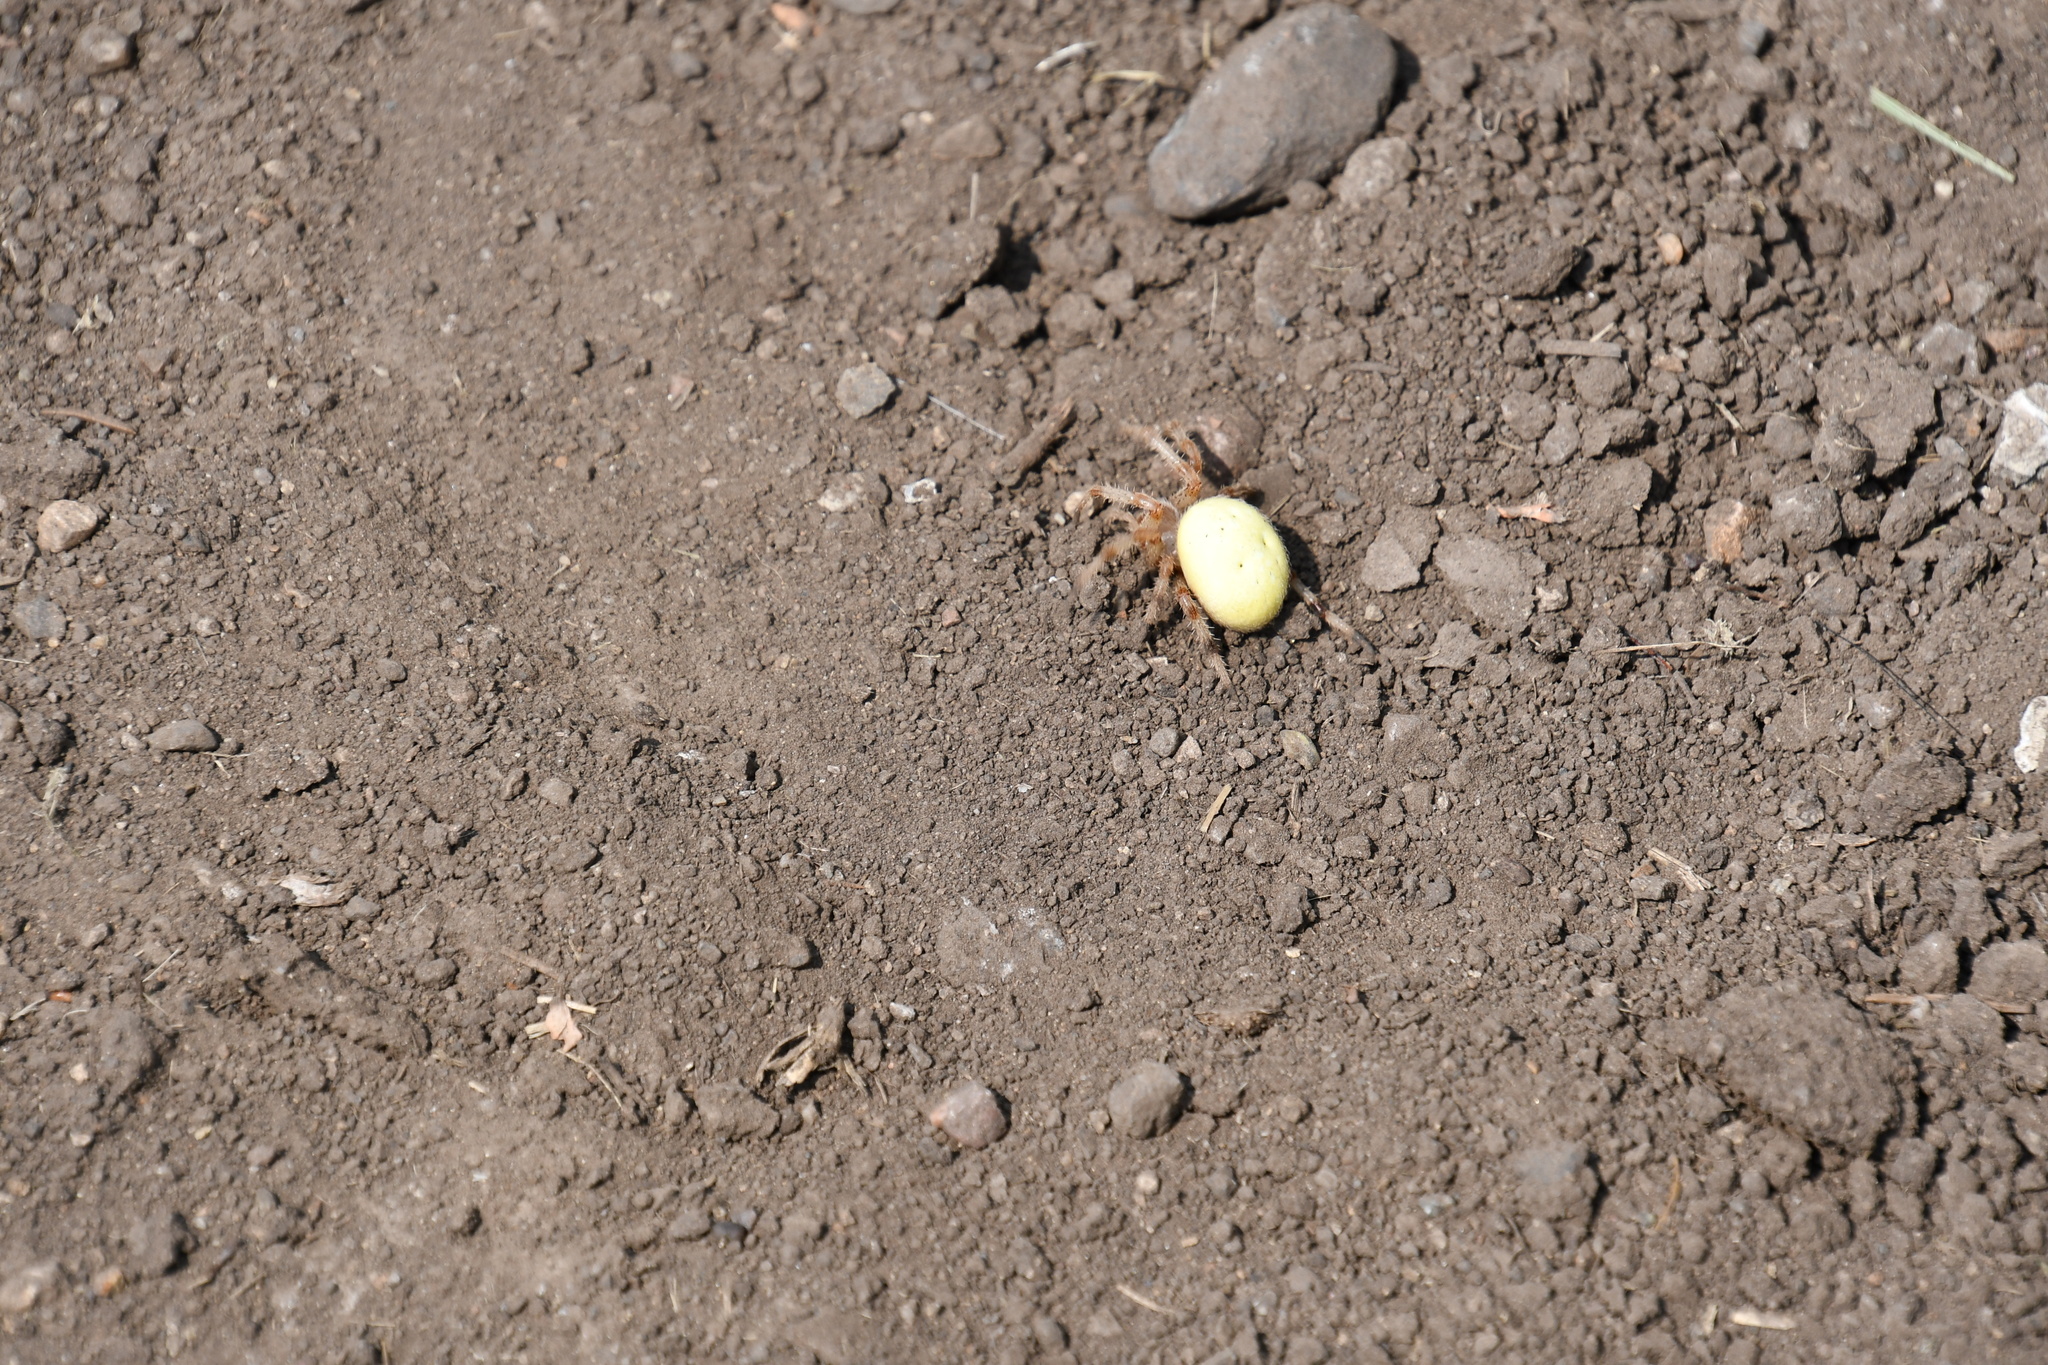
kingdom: Animalia
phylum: Arthropoda
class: Arachnida
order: Araneae
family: Araneidae
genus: Araneus
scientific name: Araneus trifolium
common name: Shamrock orbweaver
